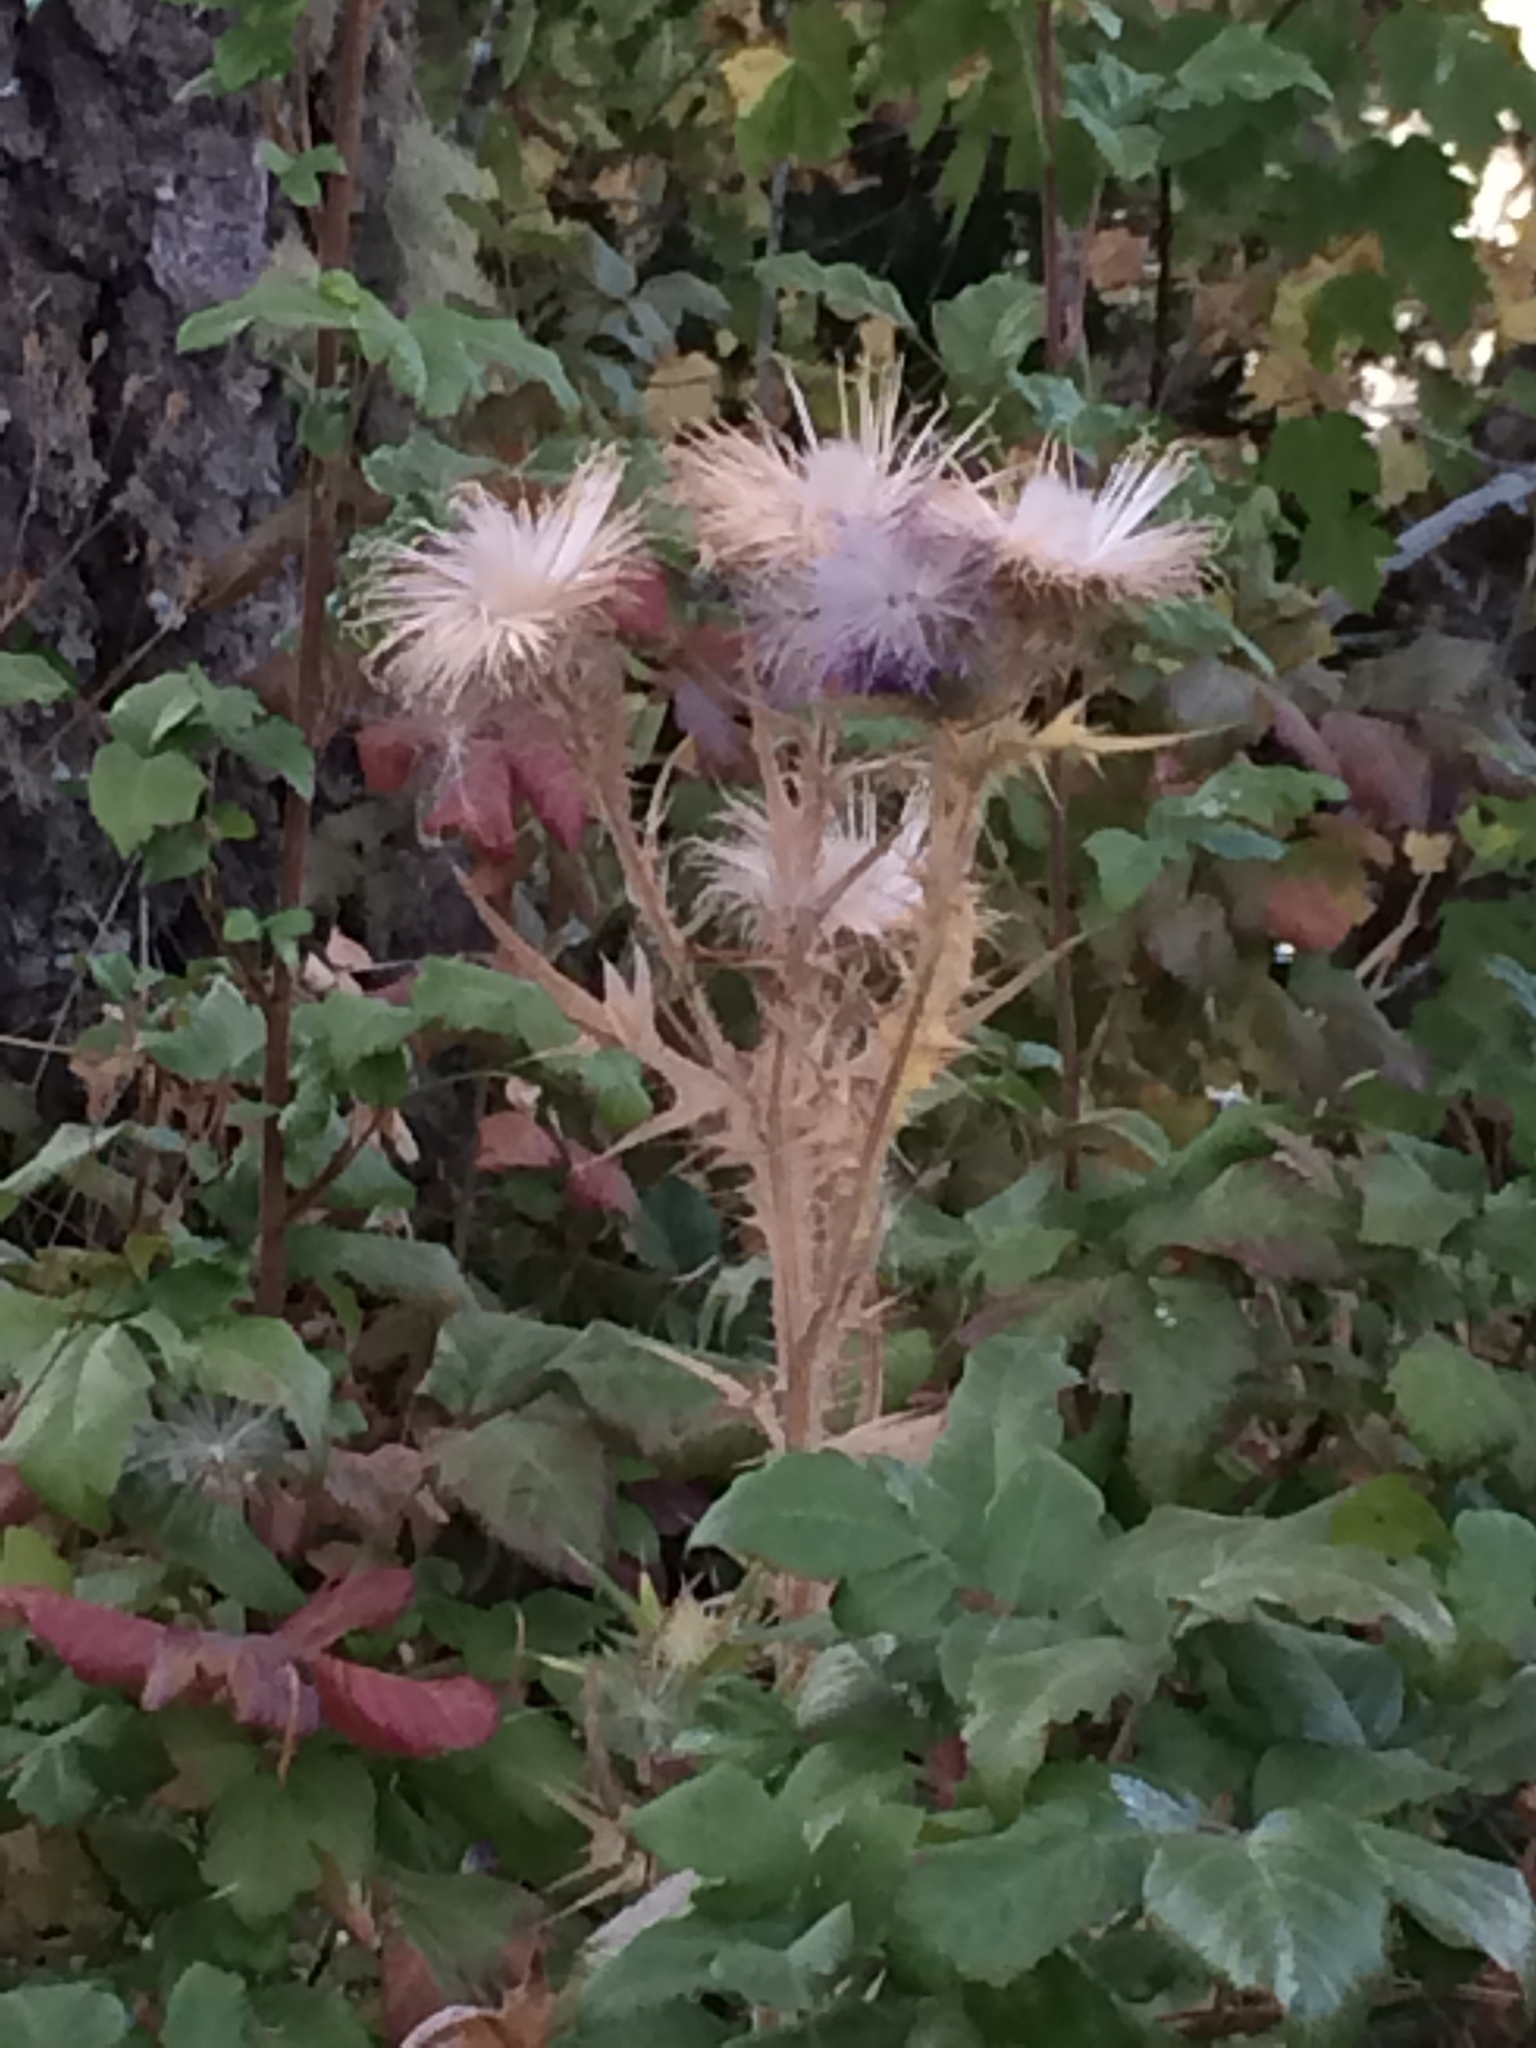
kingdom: Plantae
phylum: Tracheophyta
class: Magnoliopsida
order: Asterales
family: Asteraceae
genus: Cirsium
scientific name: Cirsium vulgare
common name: Bull thistle
